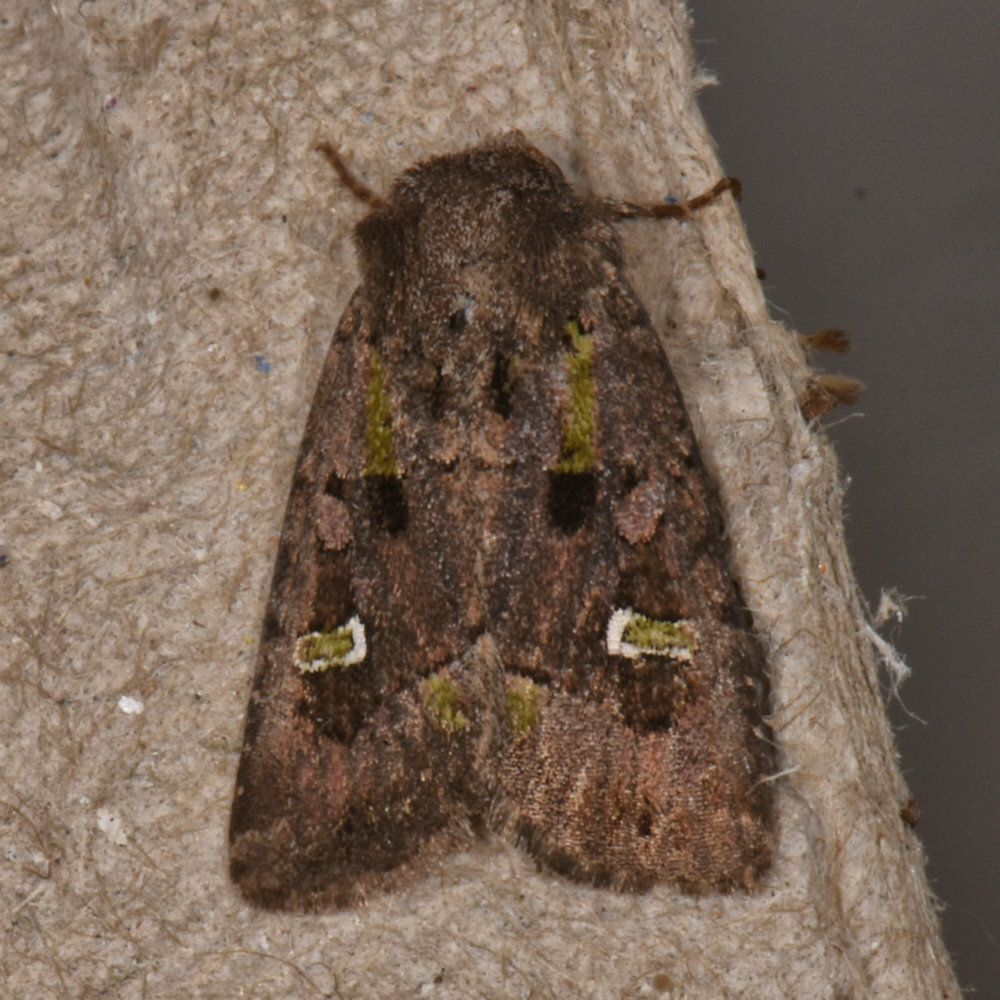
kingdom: Animalia
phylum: Arthropoda
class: Insecta
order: Lepidoptera
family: Noctuidae
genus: Lacinipolia
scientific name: Lacinipolia renigera
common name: Kidney-spotted minor
